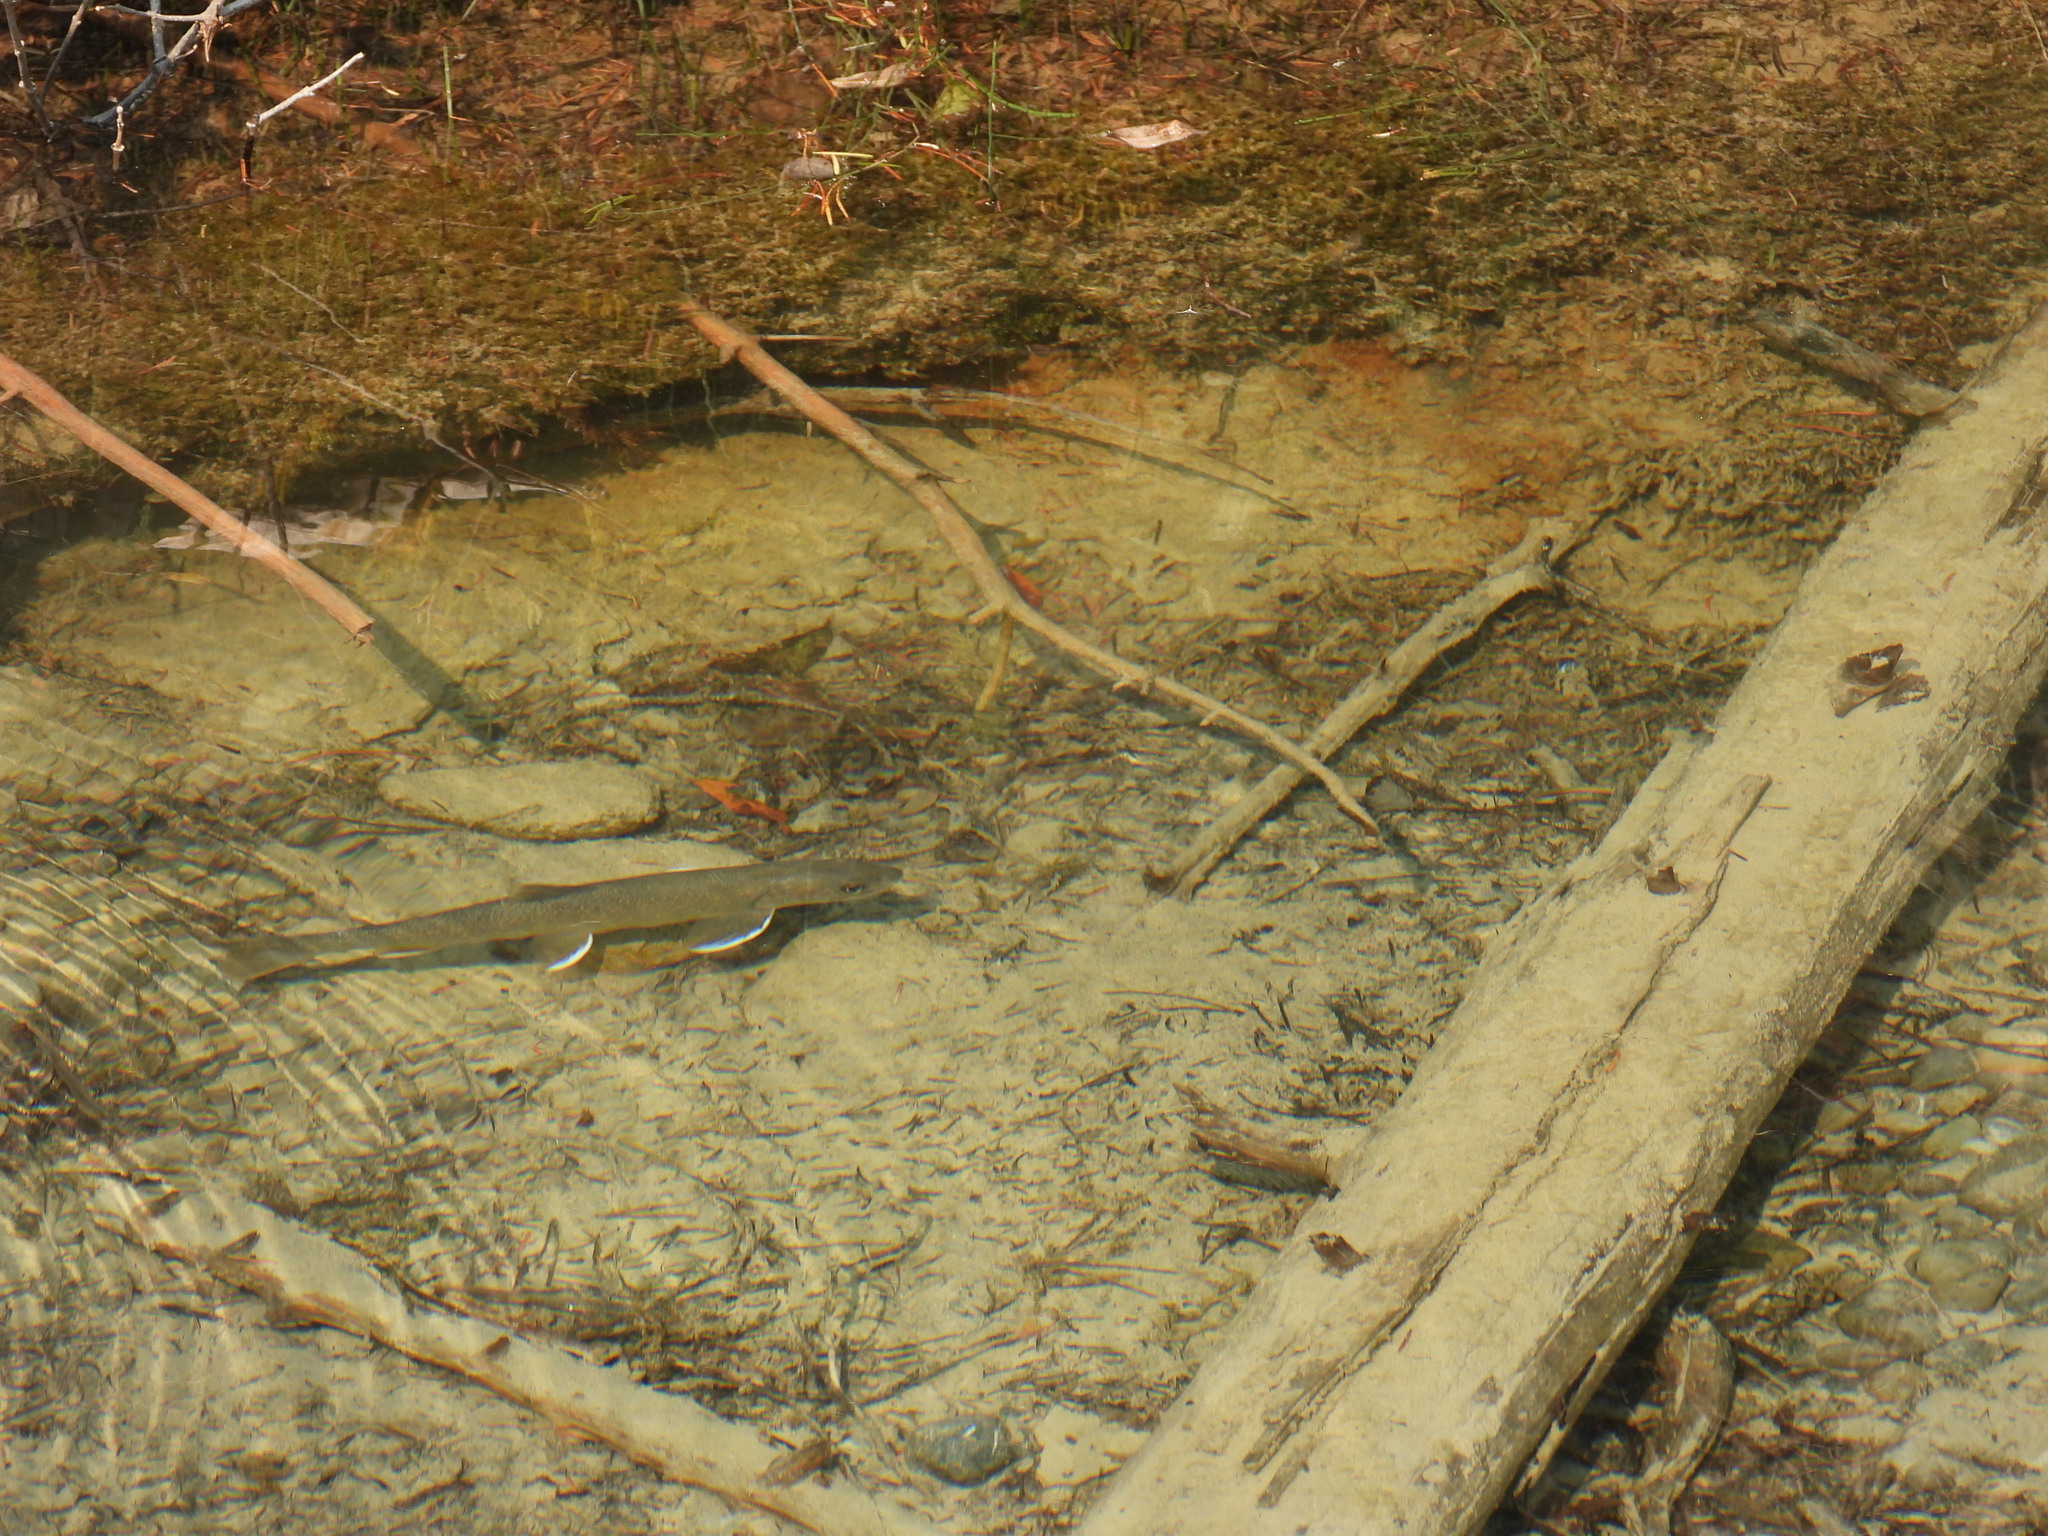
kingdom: Animalia
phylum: Chordata
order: Salmoniformes
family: Salmonidae
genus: Salvelinus
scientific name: Salvelinus confluentus
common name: Bull trout
